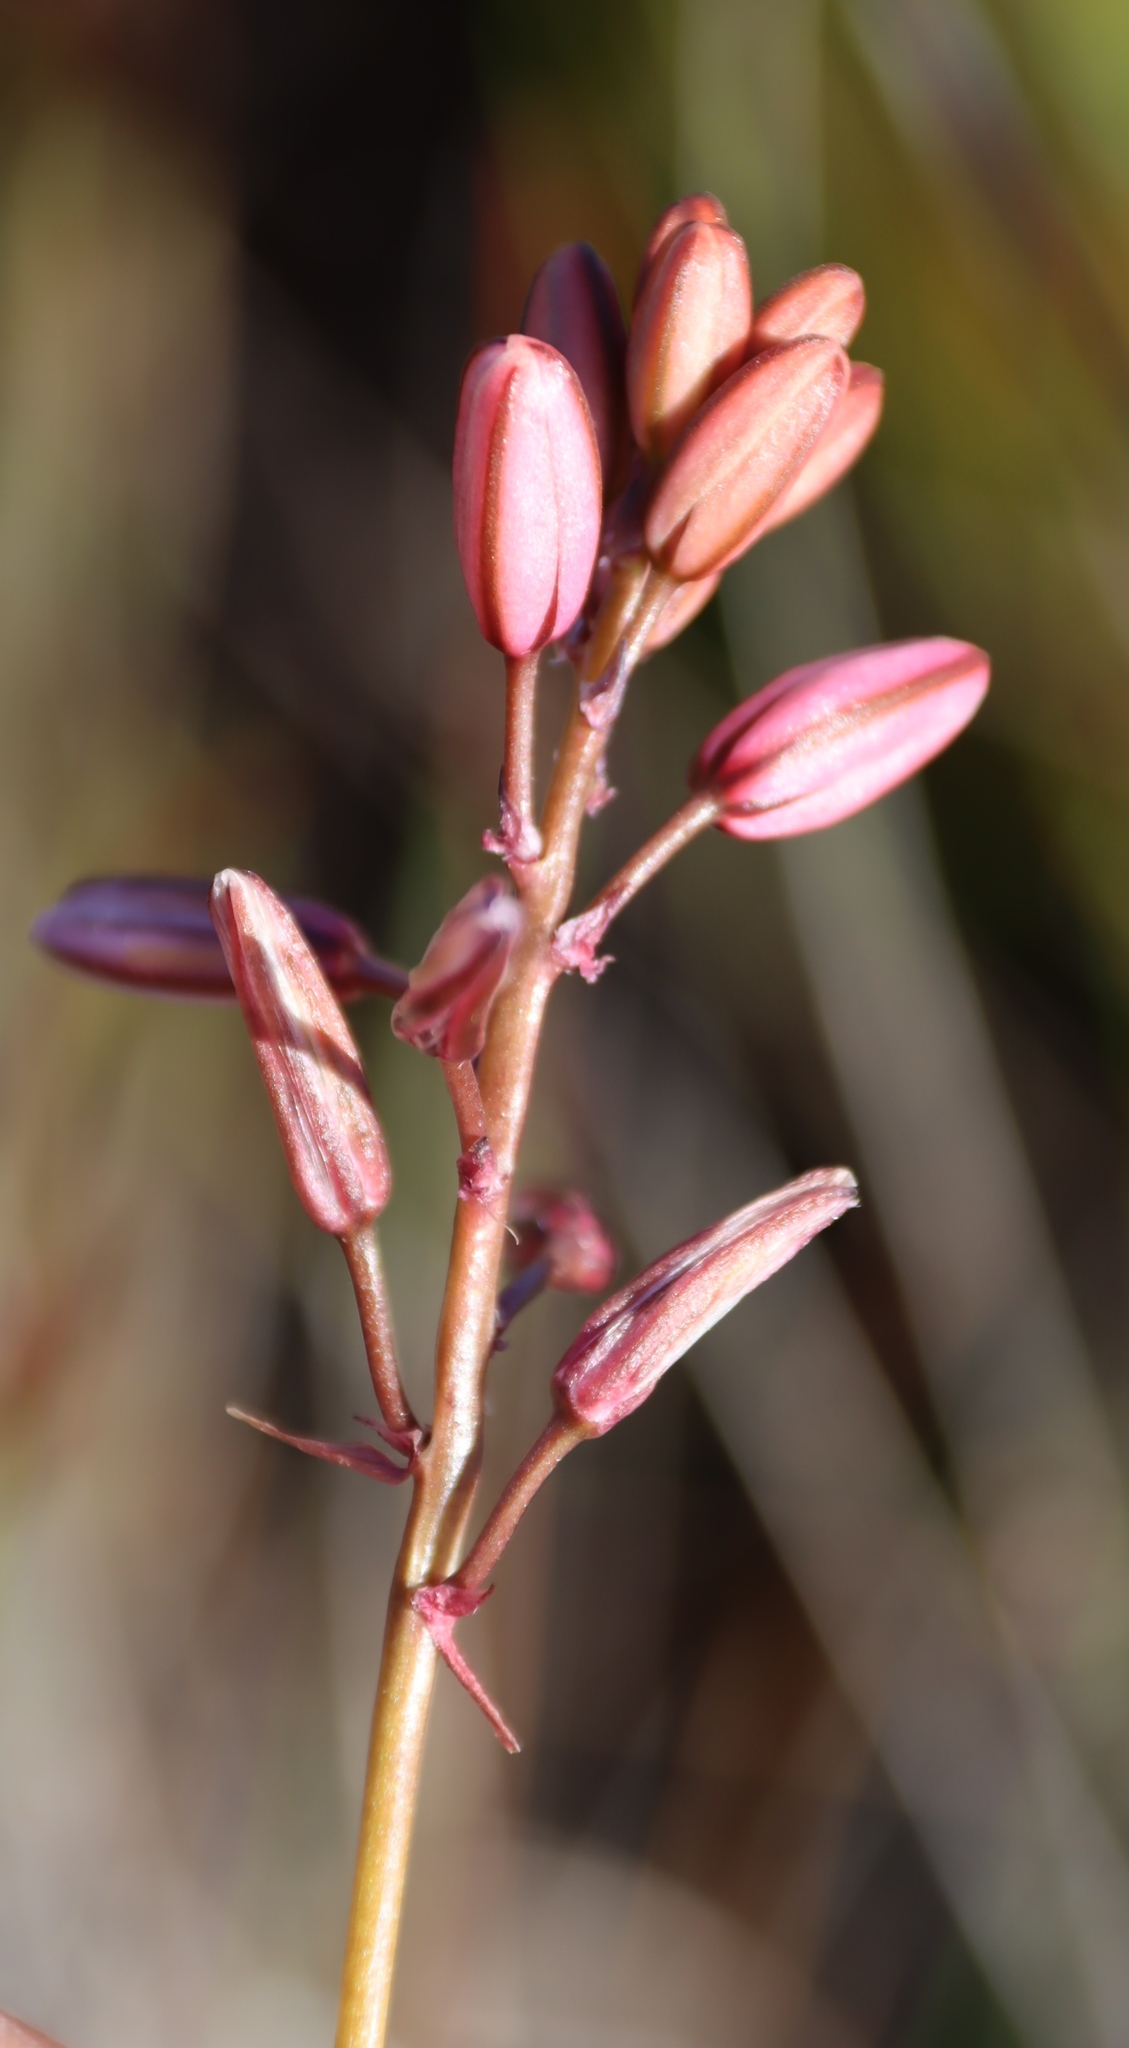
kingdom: Plantae
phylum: Tracheophyta
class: Liliopsida
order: Asparagales
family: Asparagaceae
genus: Drimia
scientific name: Drimia exuviata
